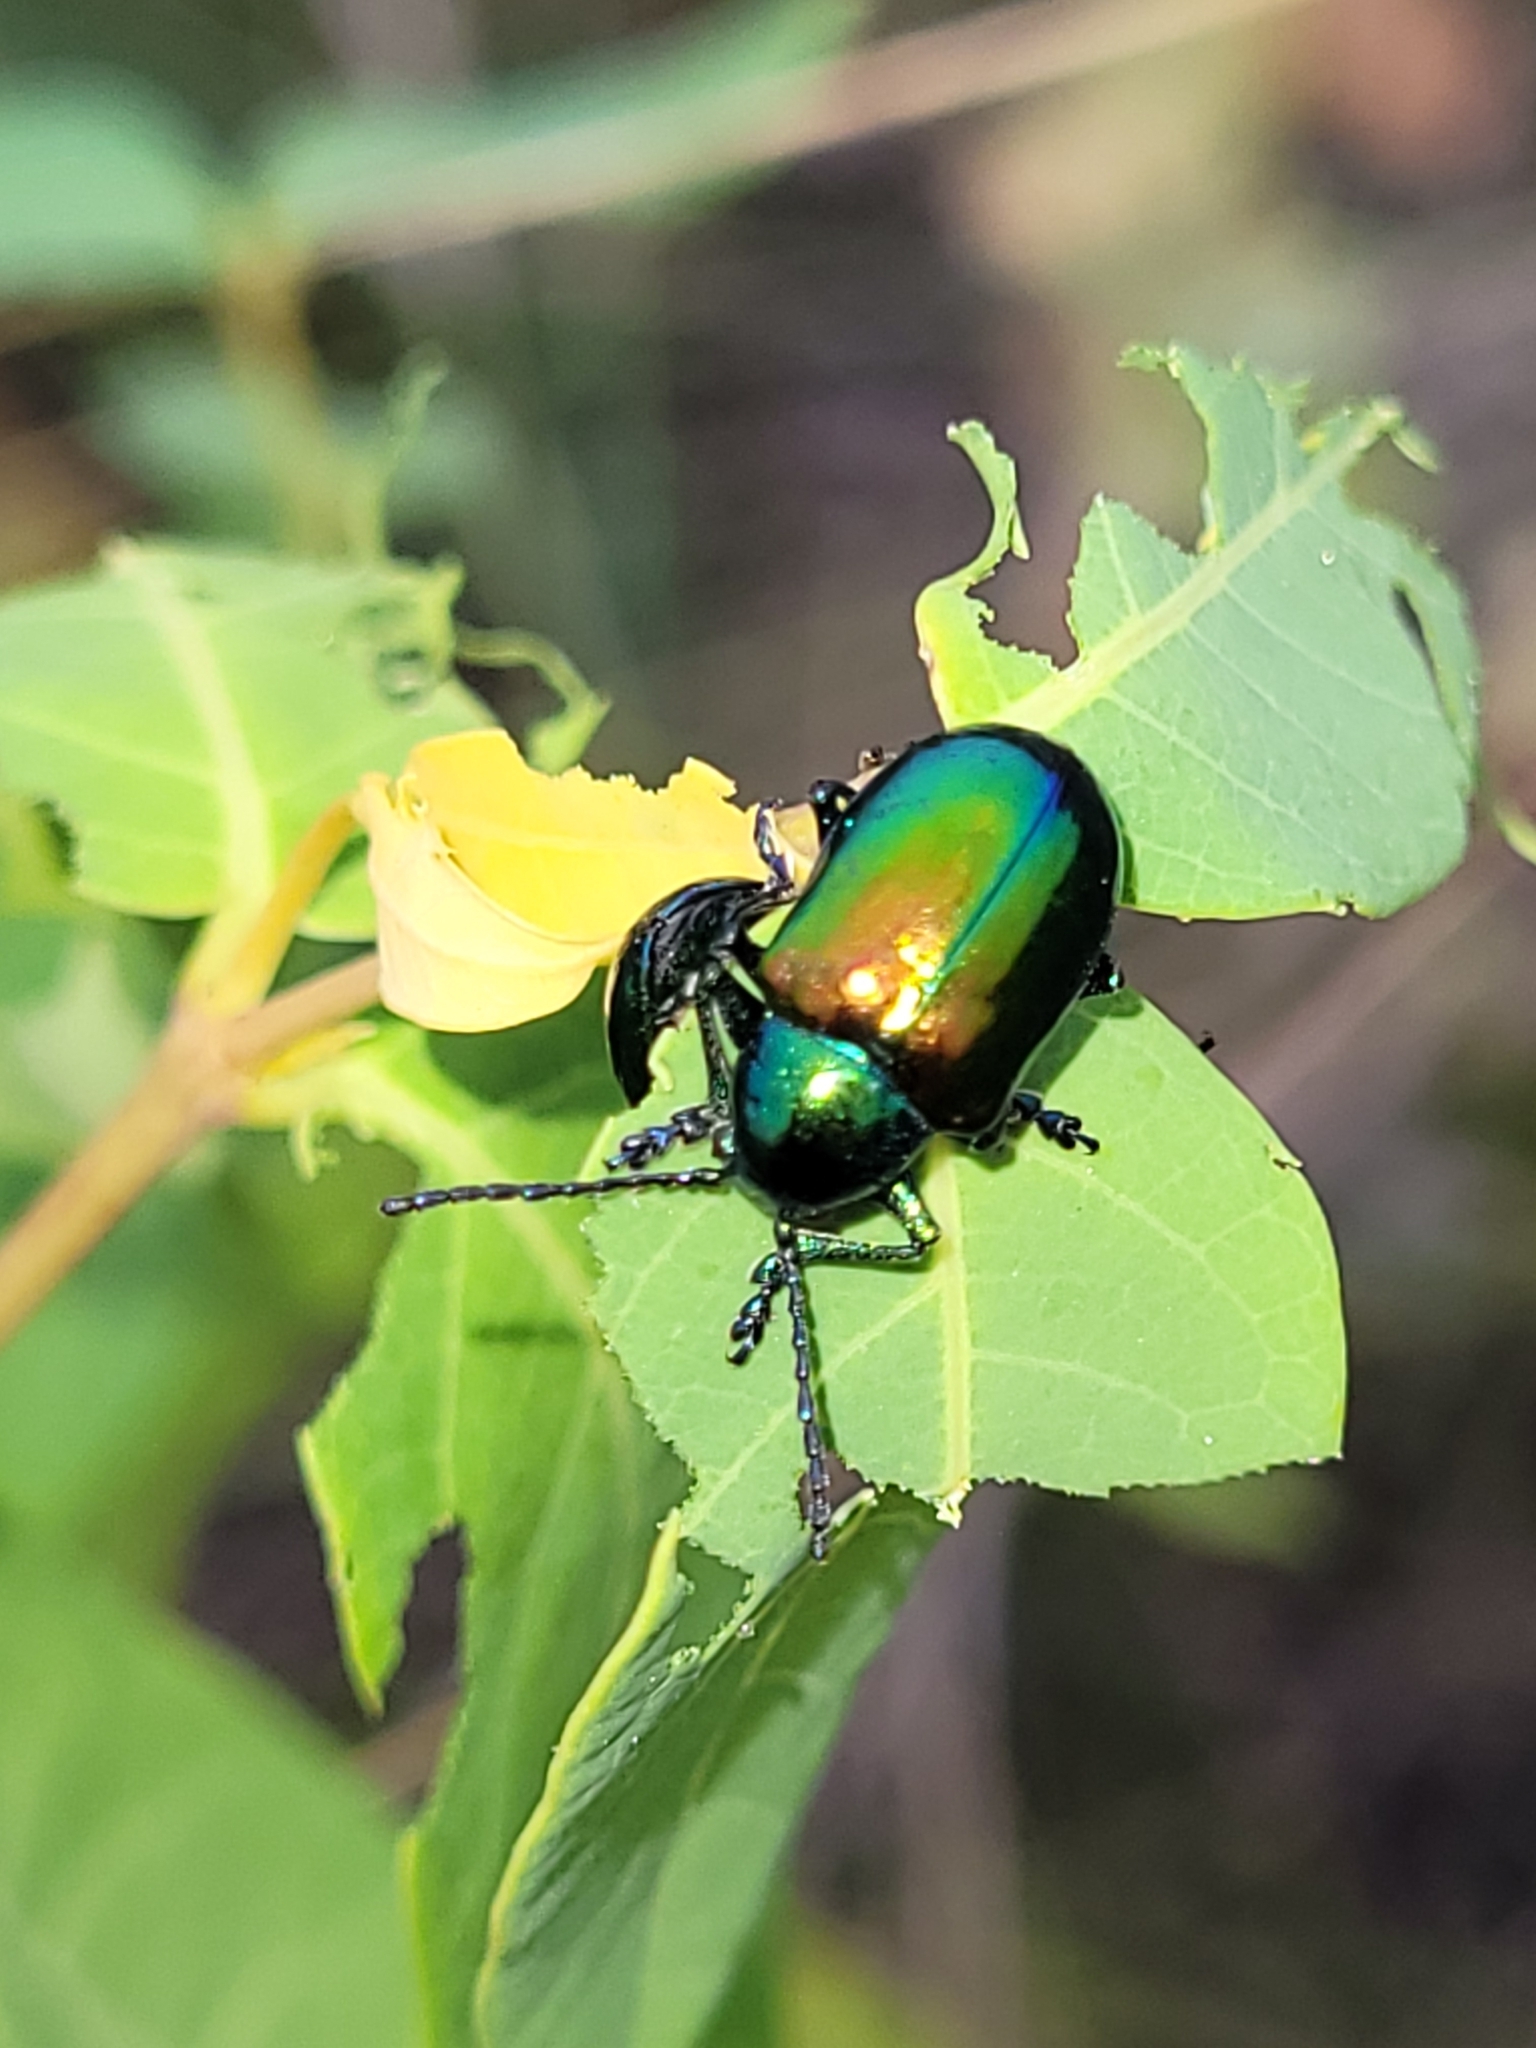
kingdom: Animalia
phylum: Arthropoda
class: Insecta
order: Coleoptera
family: Chrysomelidae
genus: Chrysochus
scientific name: Chrysochus auratus
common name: Dogbane leaf beetle
